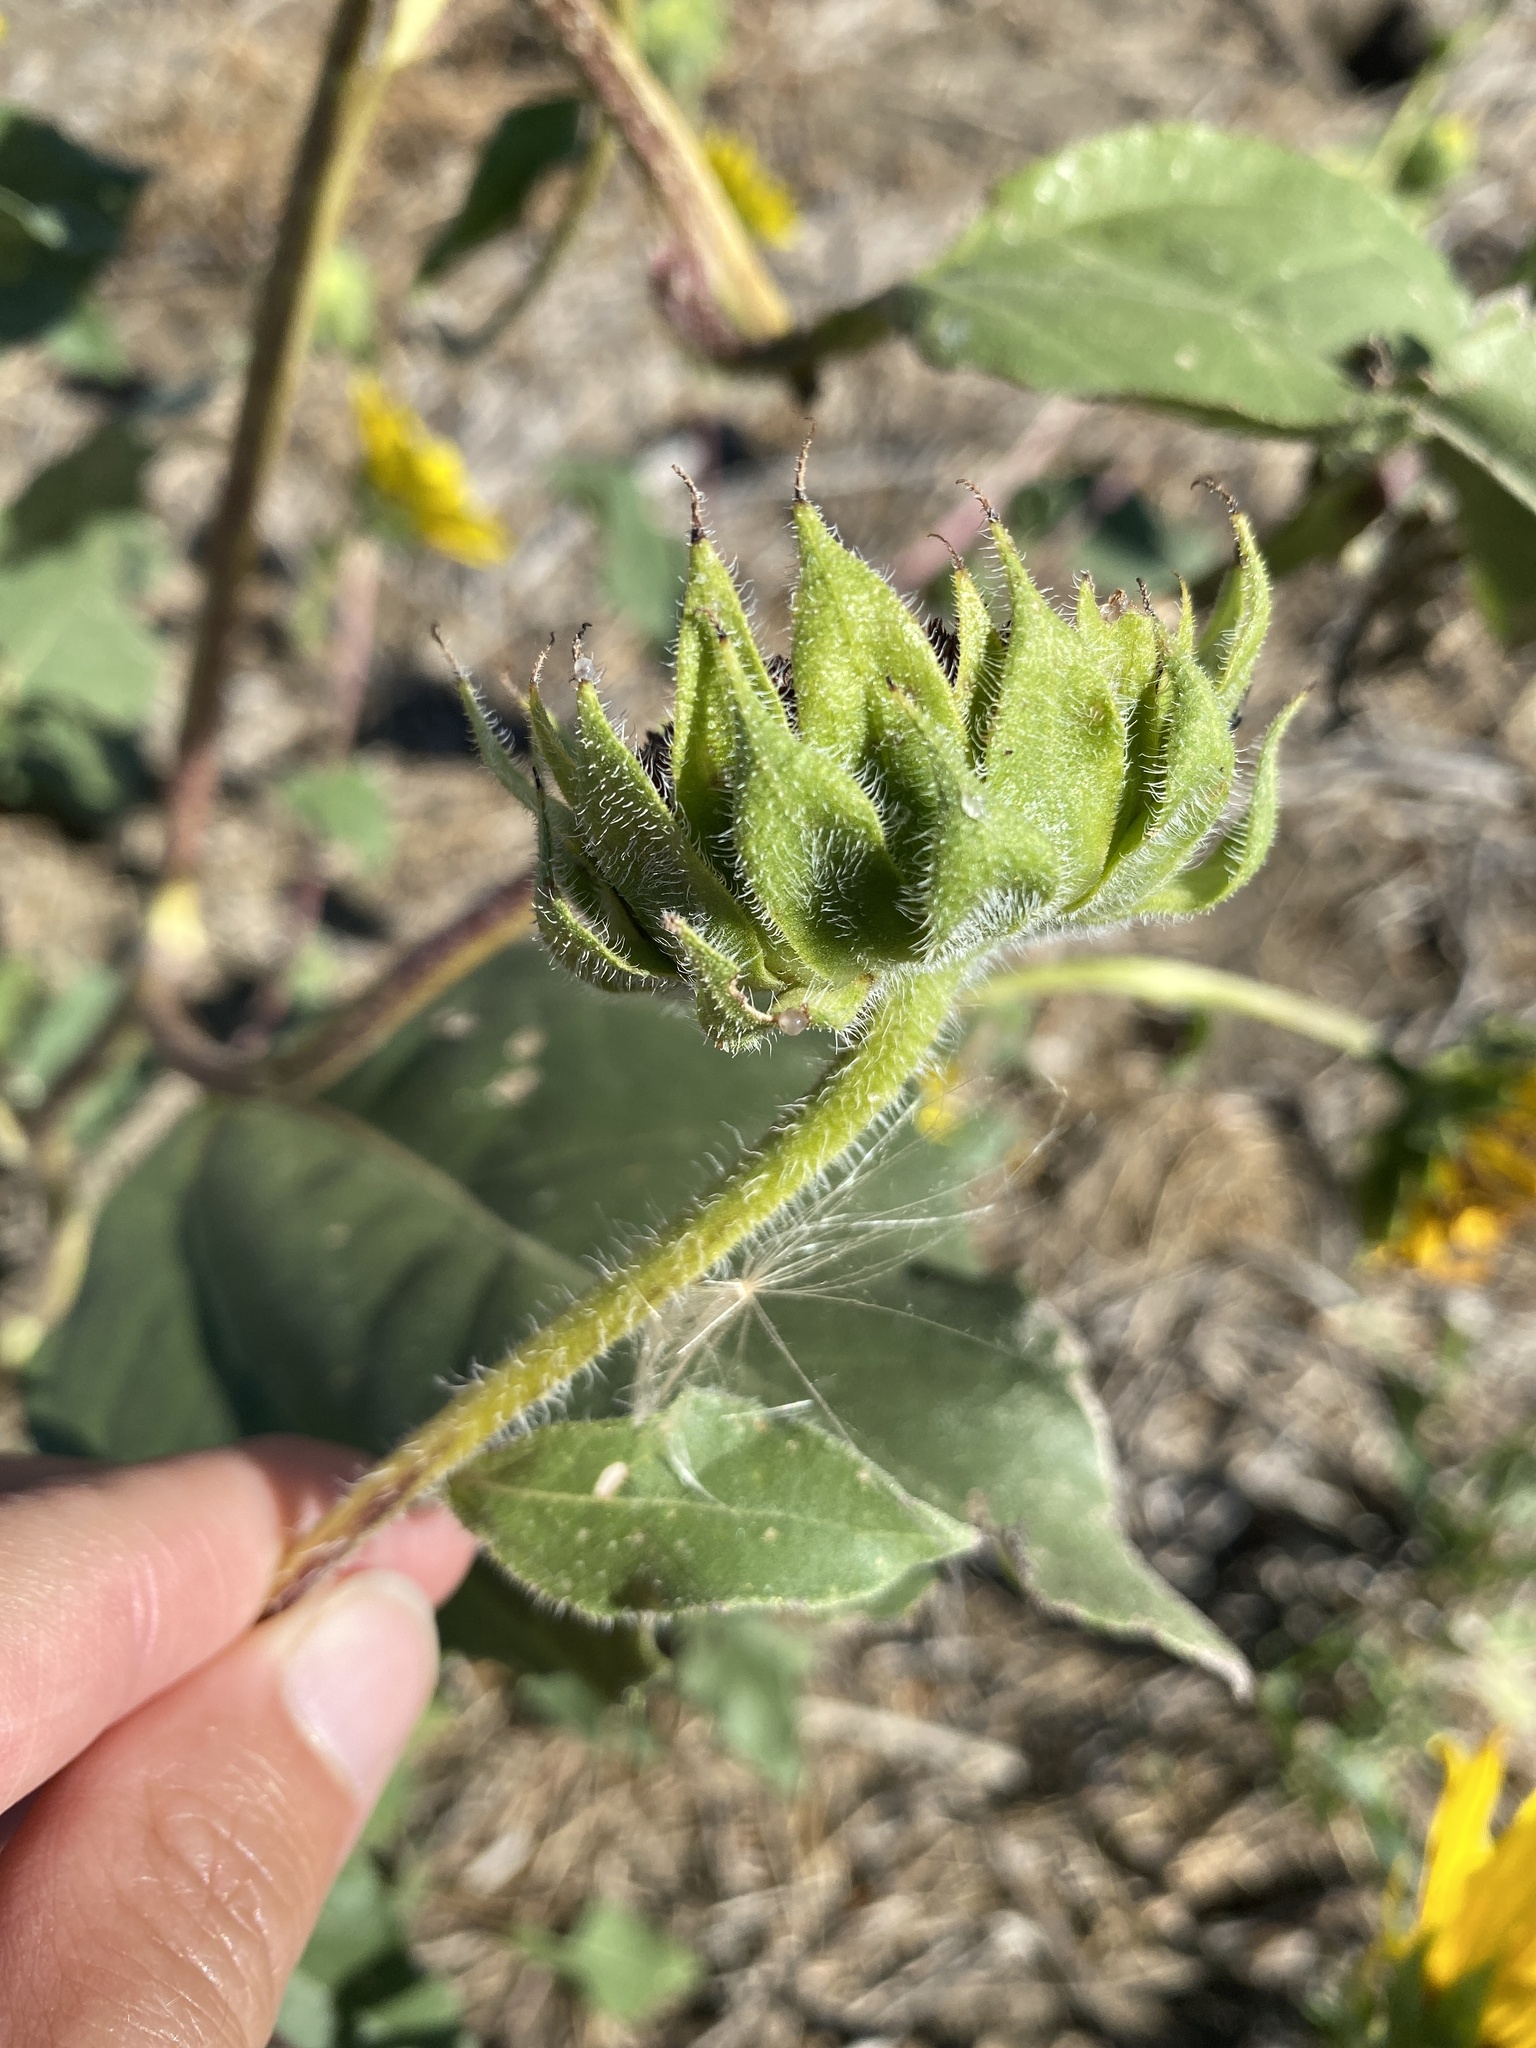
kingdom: Plantae
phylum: Tracheophyta
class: Magnoliopsida
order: Asterales
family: Asteraceae
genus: Helianthus
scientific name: Helianthus annuus
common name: Sunflower
